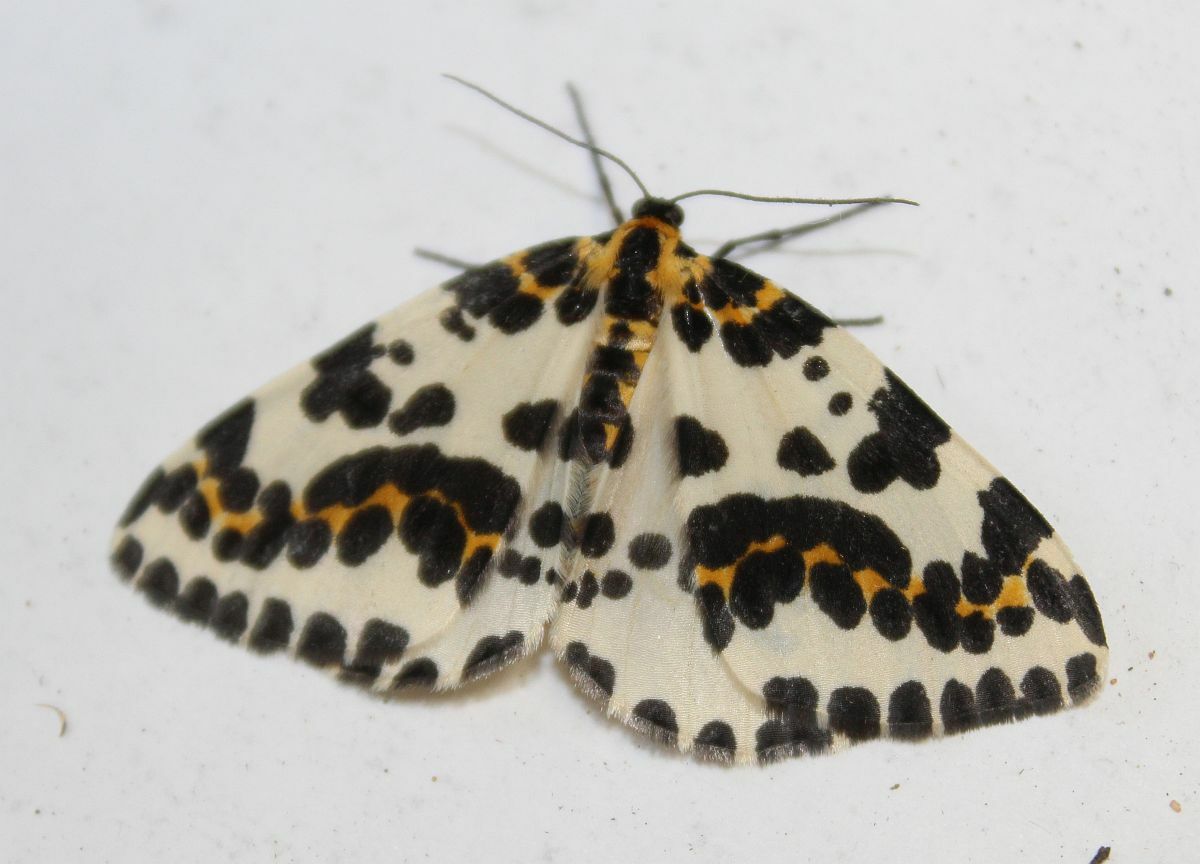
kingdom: Animalia
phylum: Arthropoda
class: Insecta
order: Lepidoptera
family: Geometridae
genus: Abraxas
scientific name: Abraxas grossulariata
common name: Magpie
